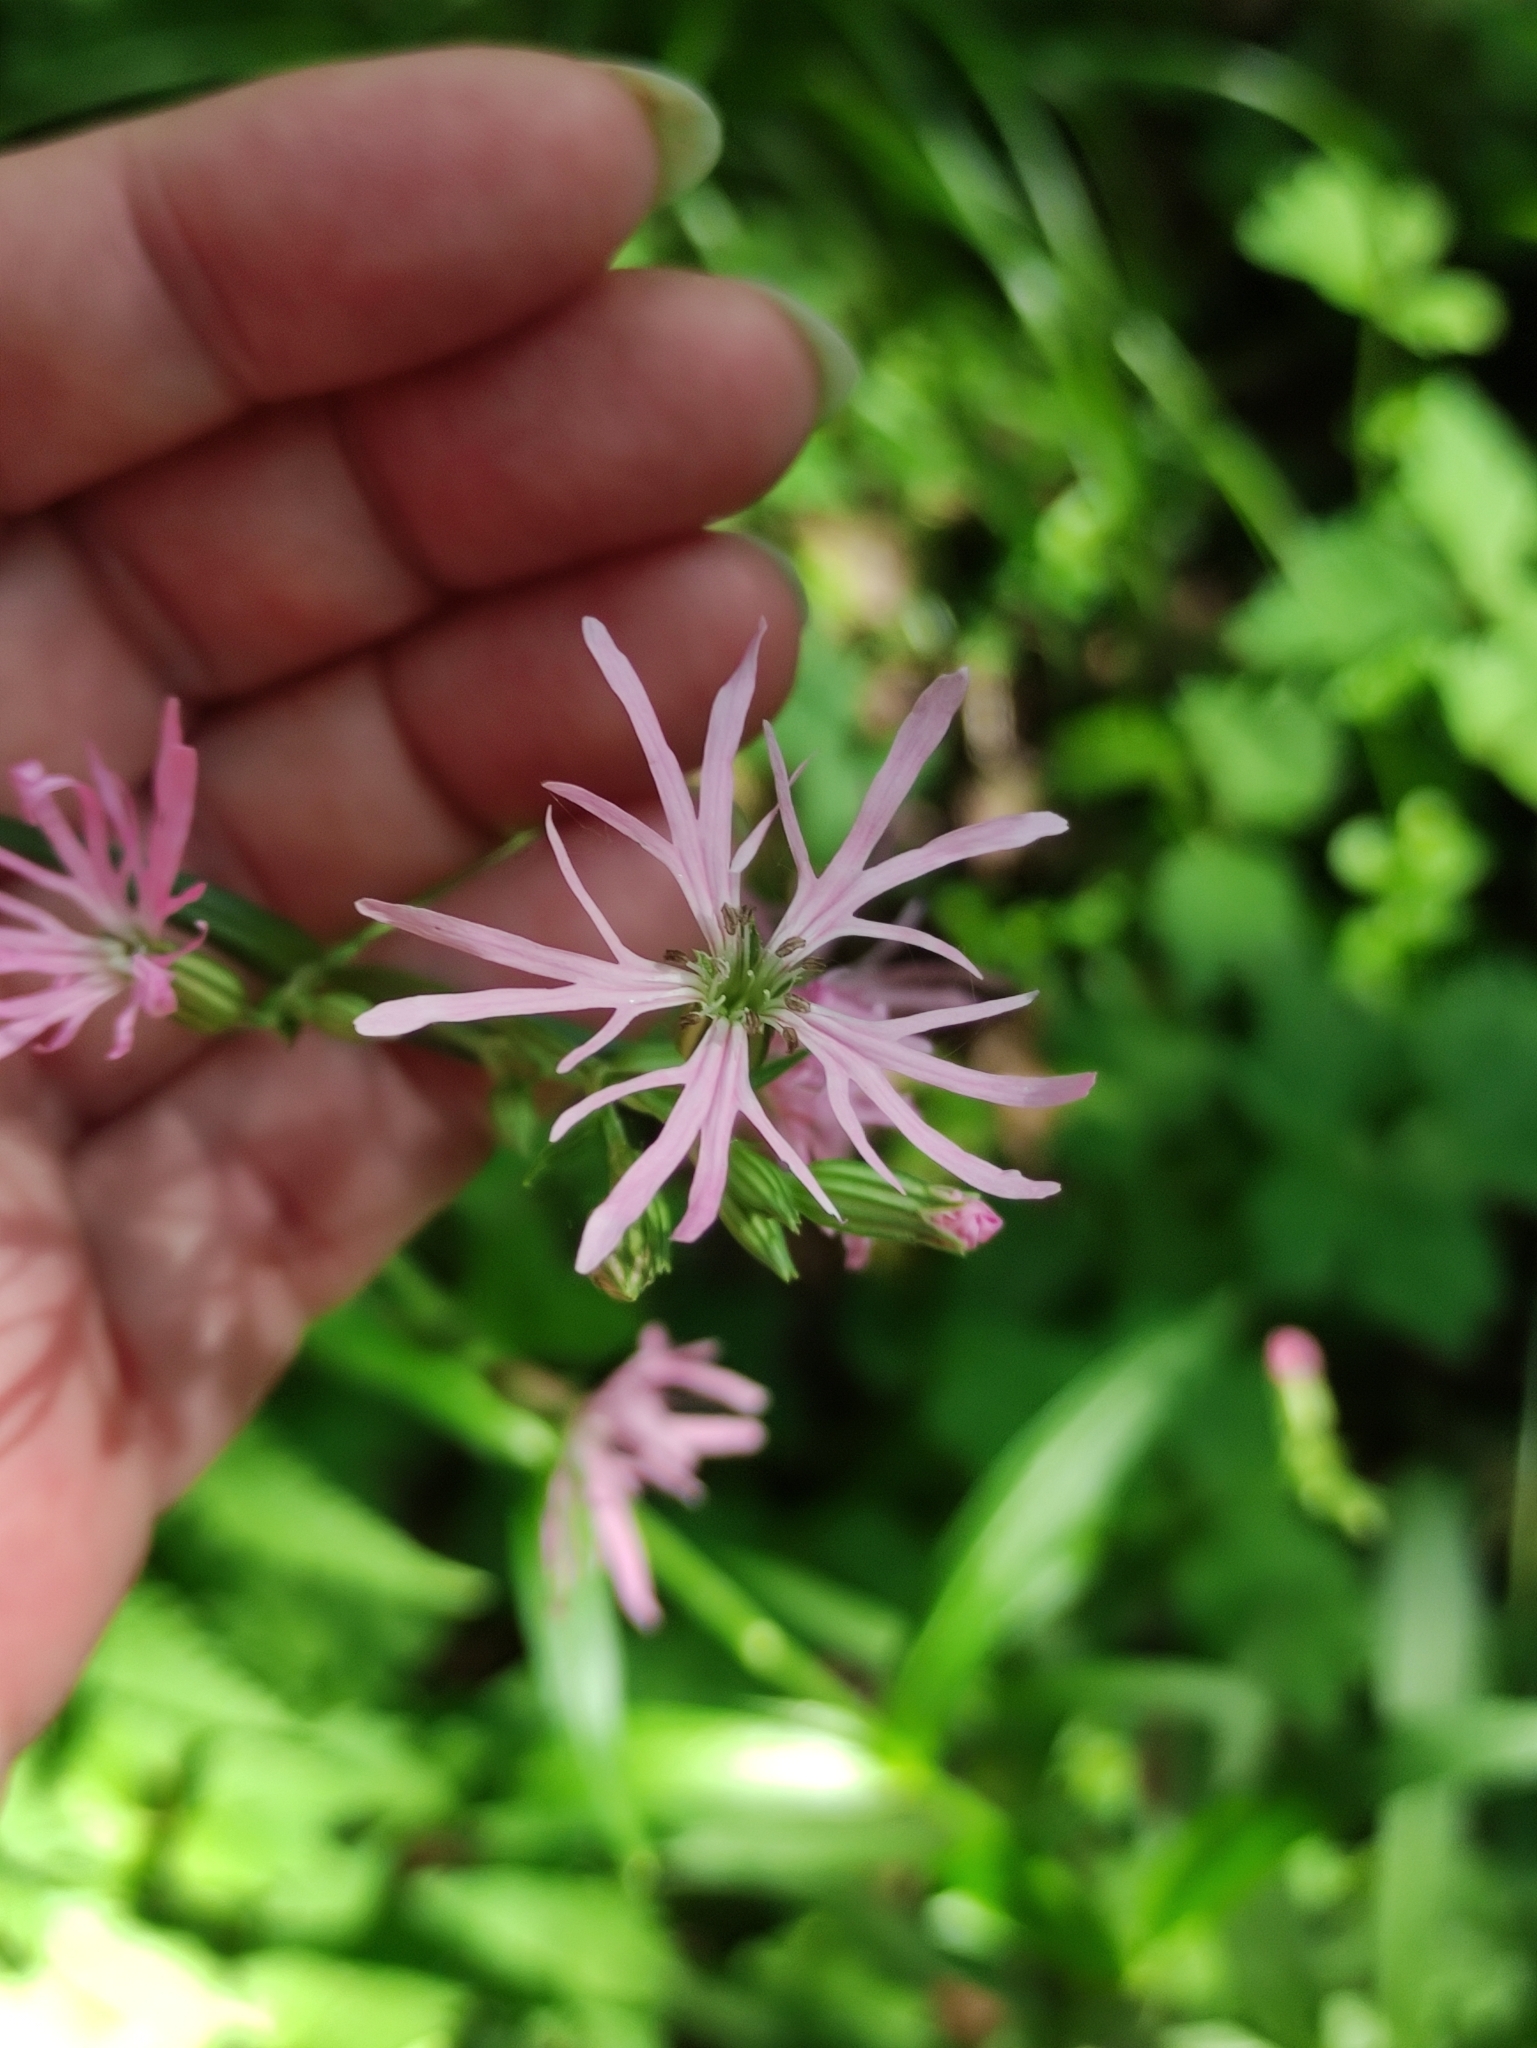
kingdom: Plantae
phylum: Tracheophyta
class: Magnoliopsida
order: Caryophyllales
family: Caryophyllaceae
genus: Silene
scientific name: Silene flos-cuculi
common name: Ragged-robin
